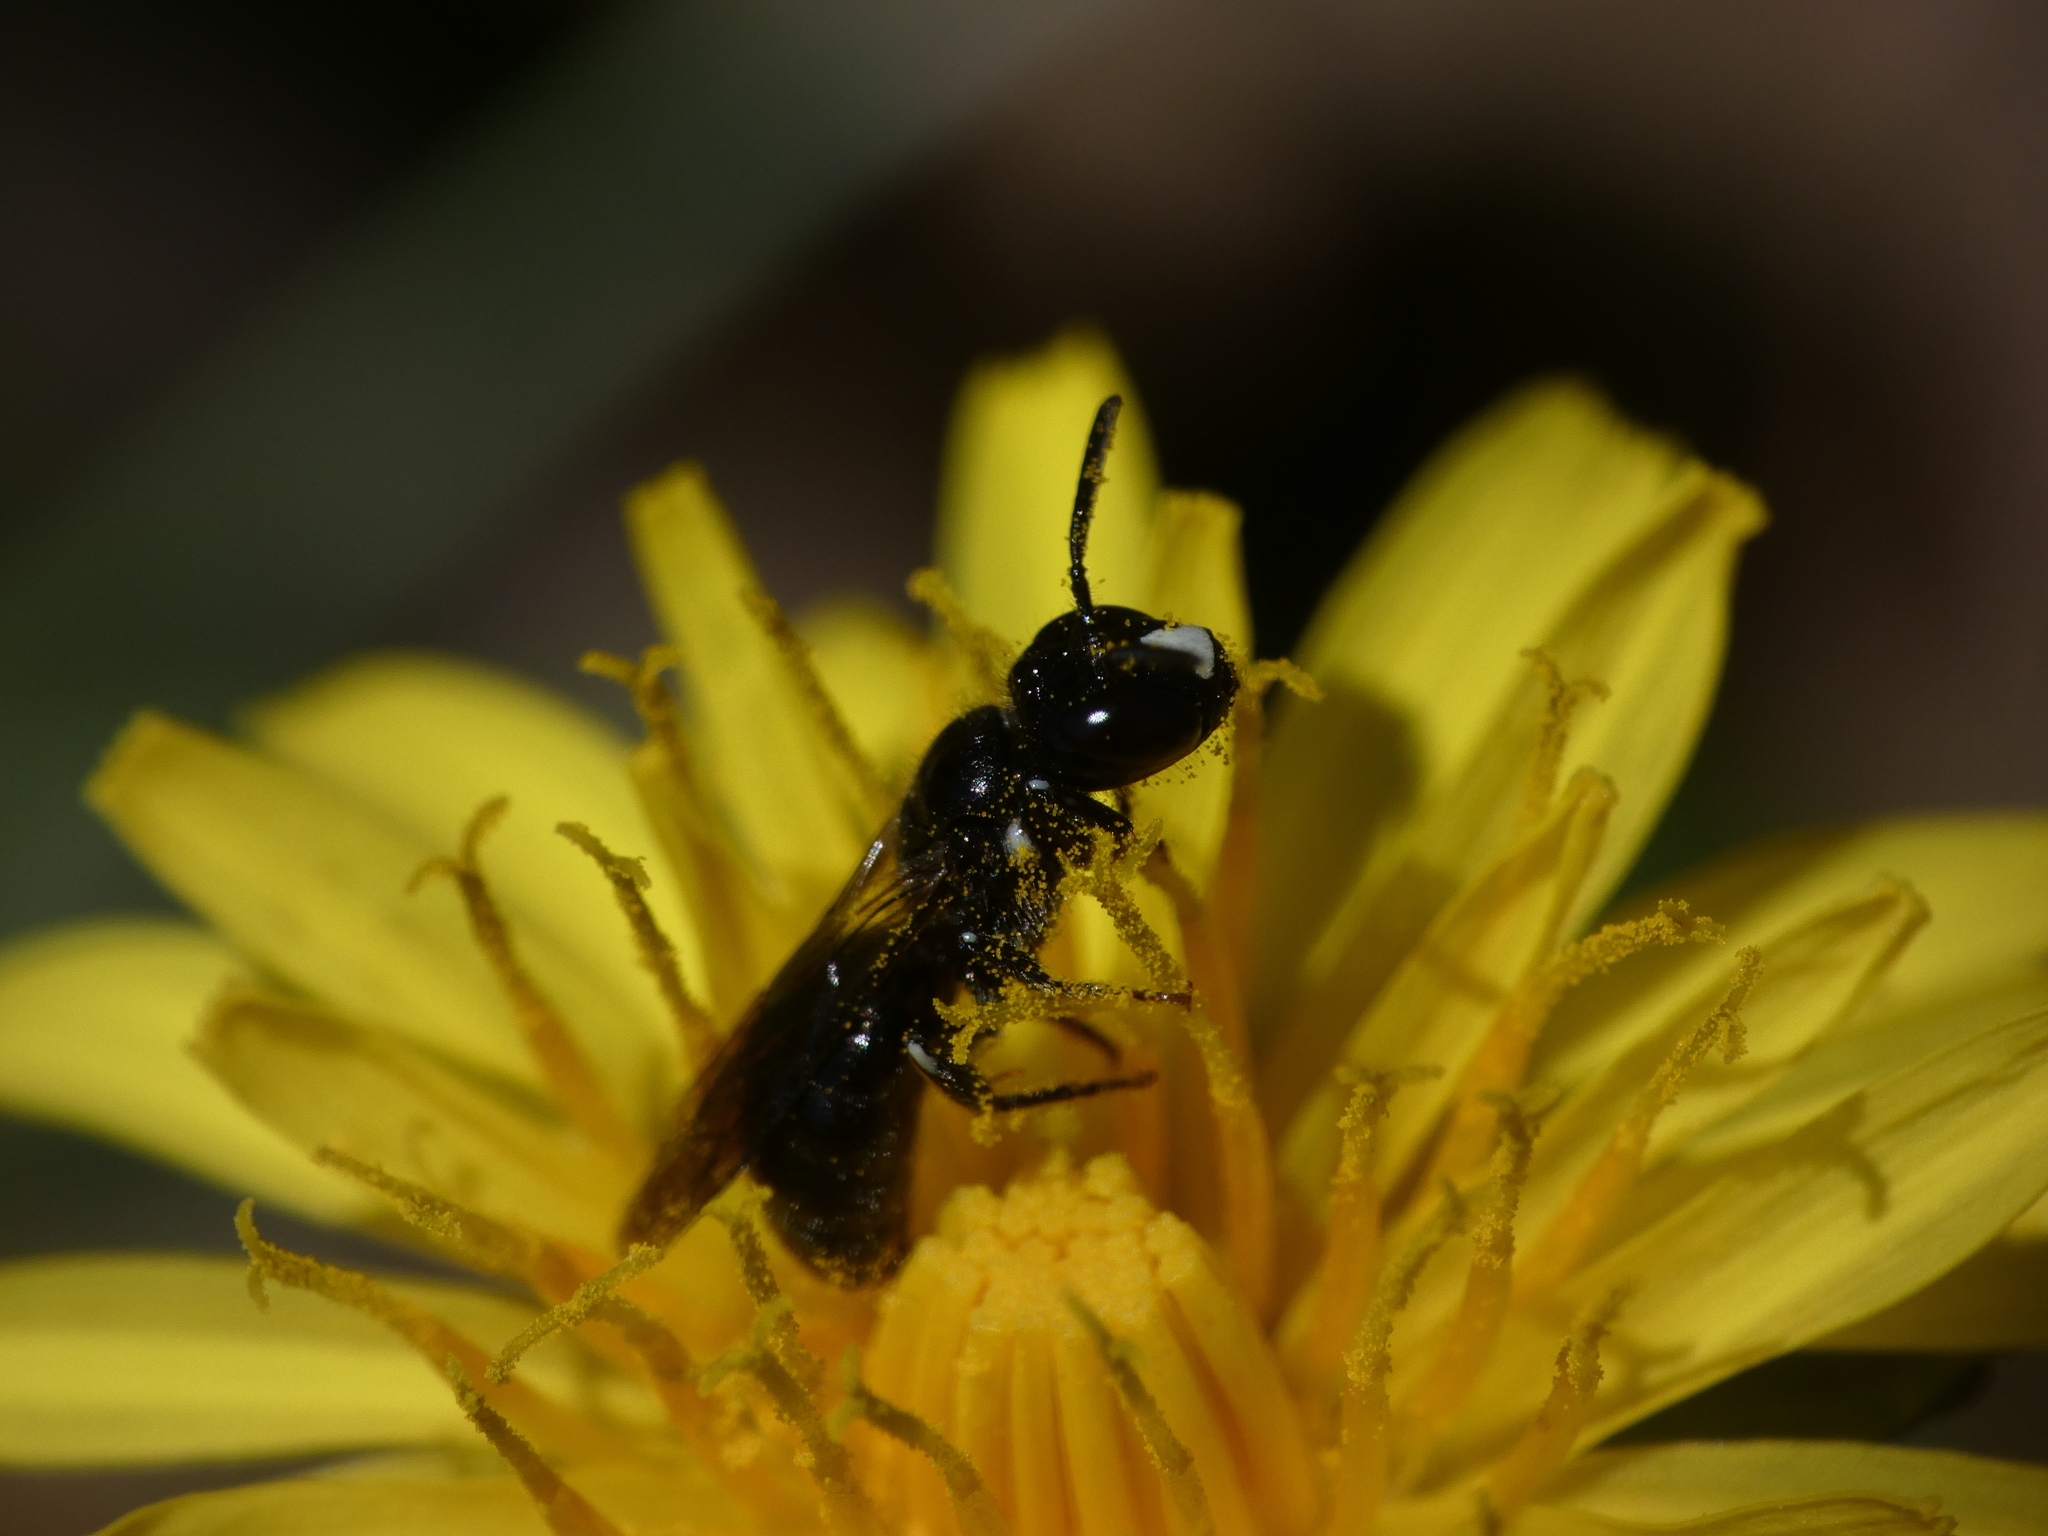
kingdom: Animalia
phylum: Arthropoda
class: Insecta
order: Hymenoptera
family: Apidae
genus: Ceratina
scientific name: Ceratina cucurbitina
